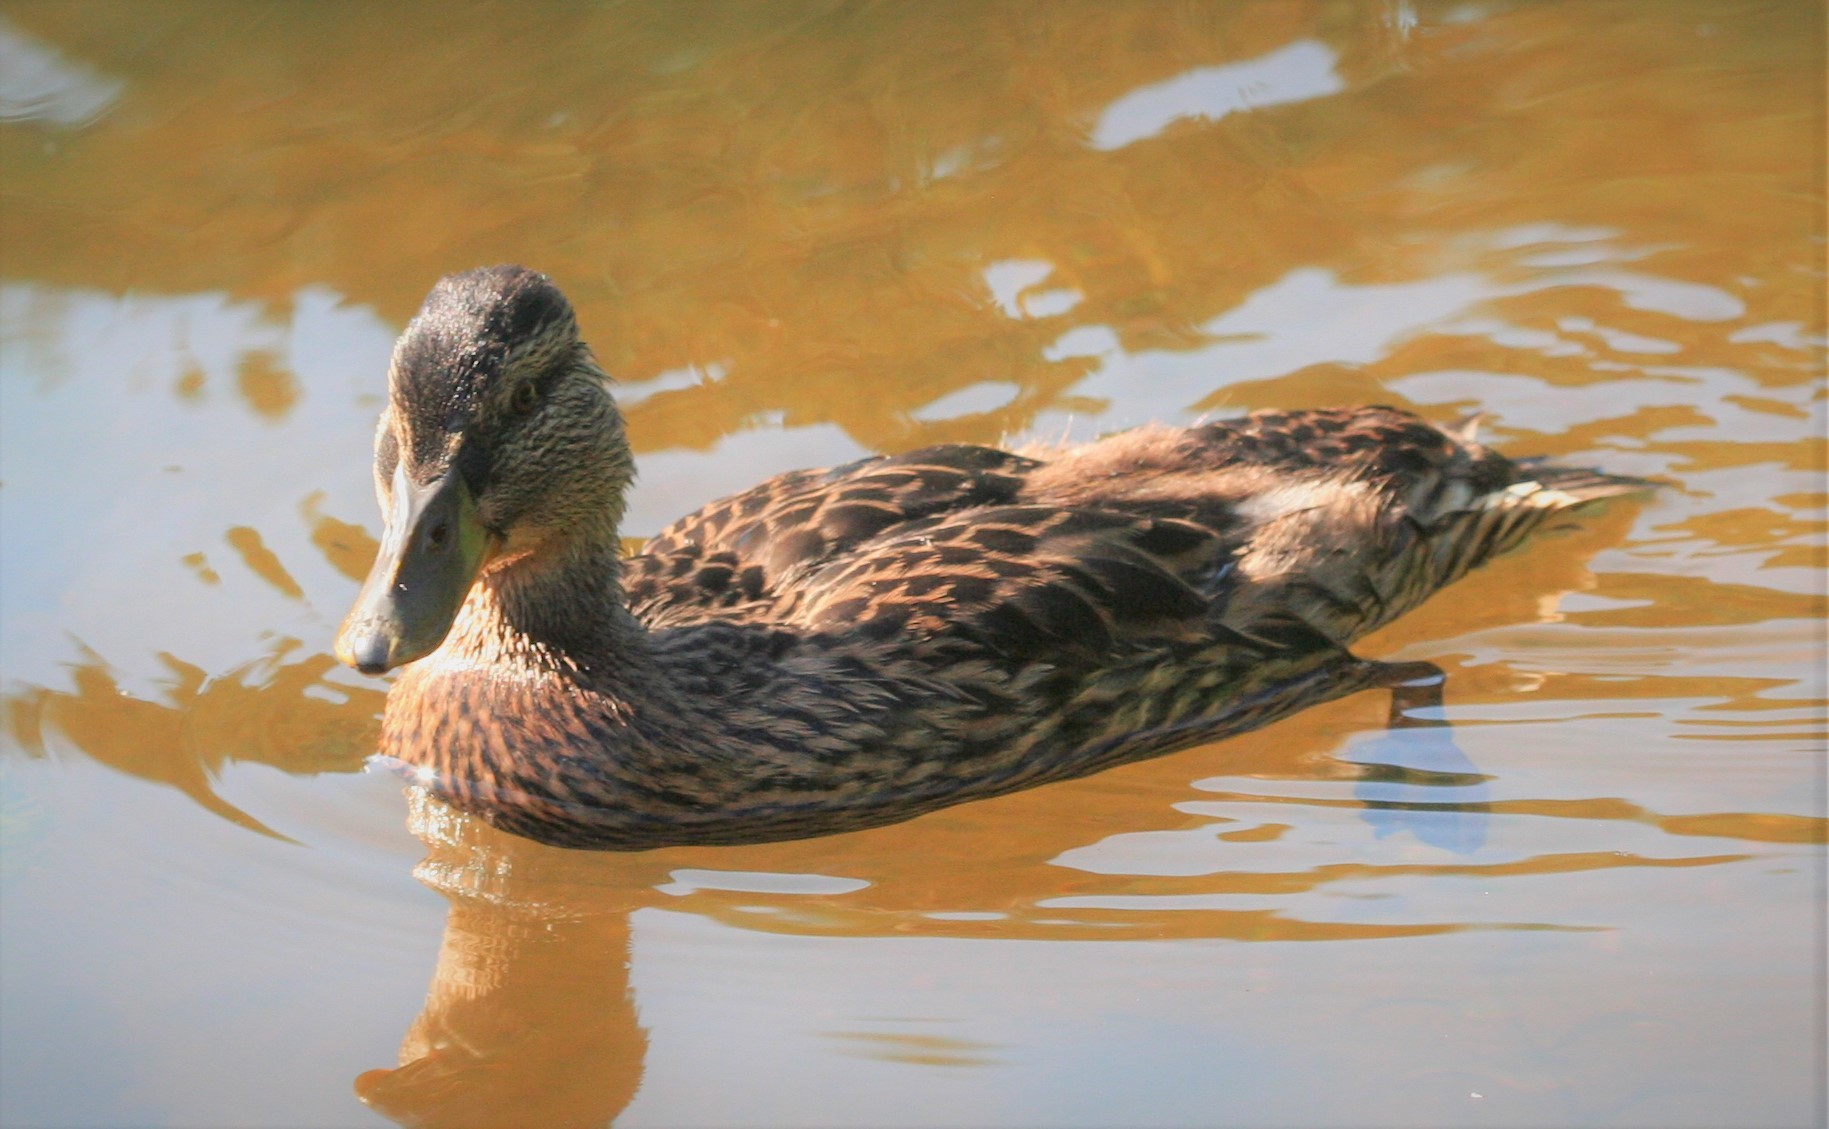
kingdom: Animalia
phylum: Chordata
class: Aves
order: Anseriformes
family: Anatidae
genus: Anas
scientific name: Anas platyrhynchos
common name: Mallard
